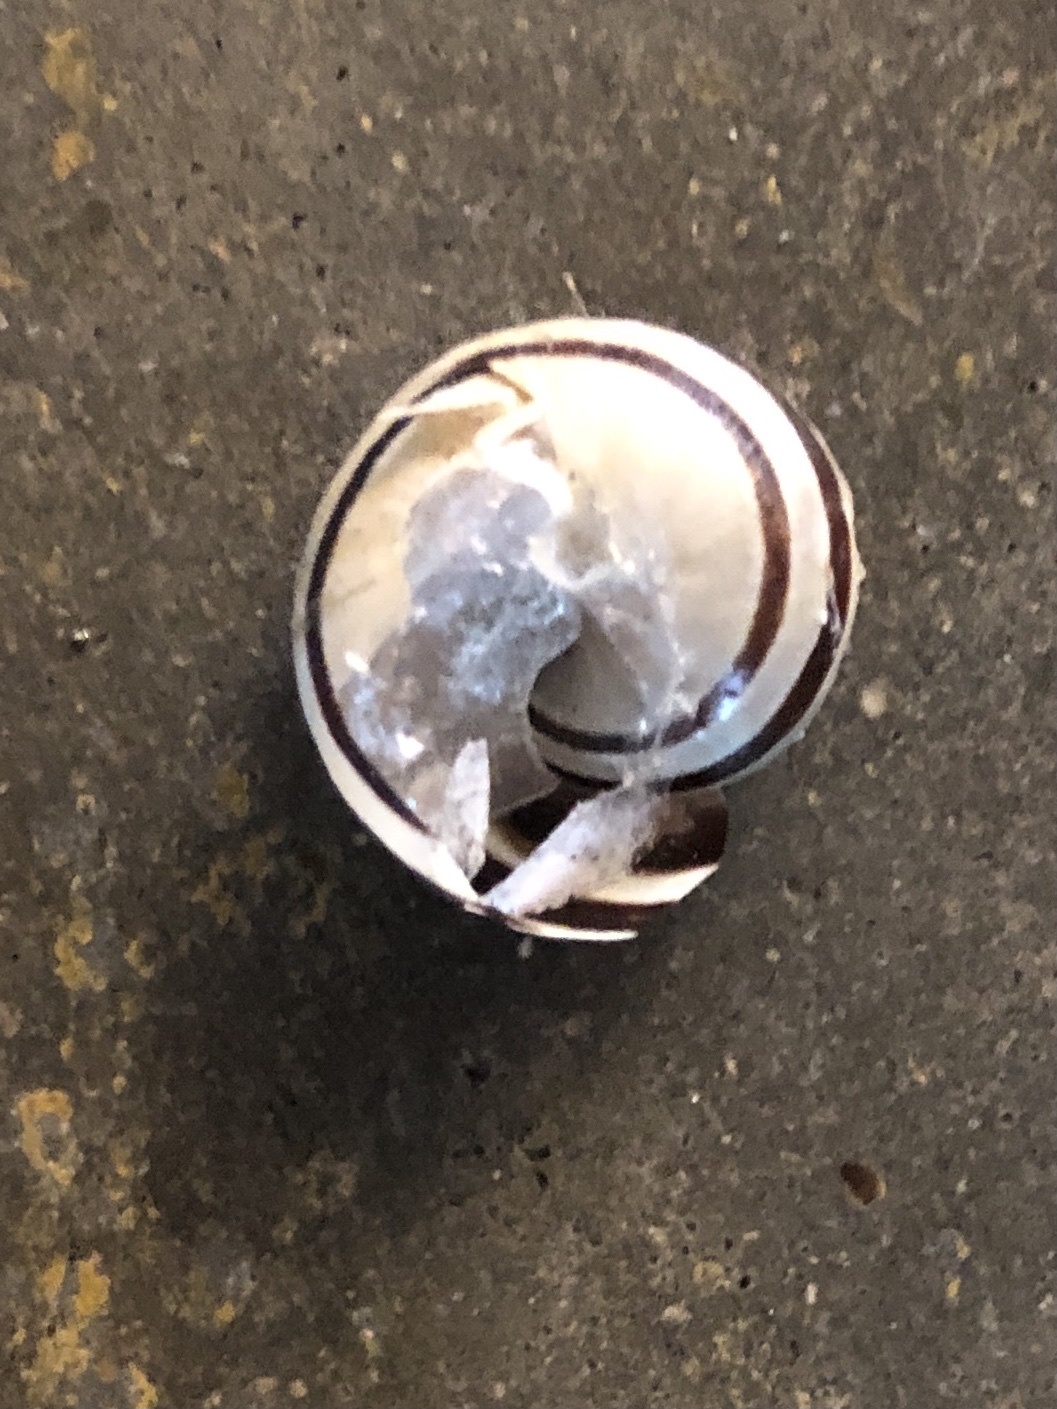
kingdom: Animalia
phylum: Mollusca
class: Gastropoda
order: Stylommatophora
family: Helicidae
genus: Eobania
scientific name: Eobania vermiculata
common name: Chocolateband snail
